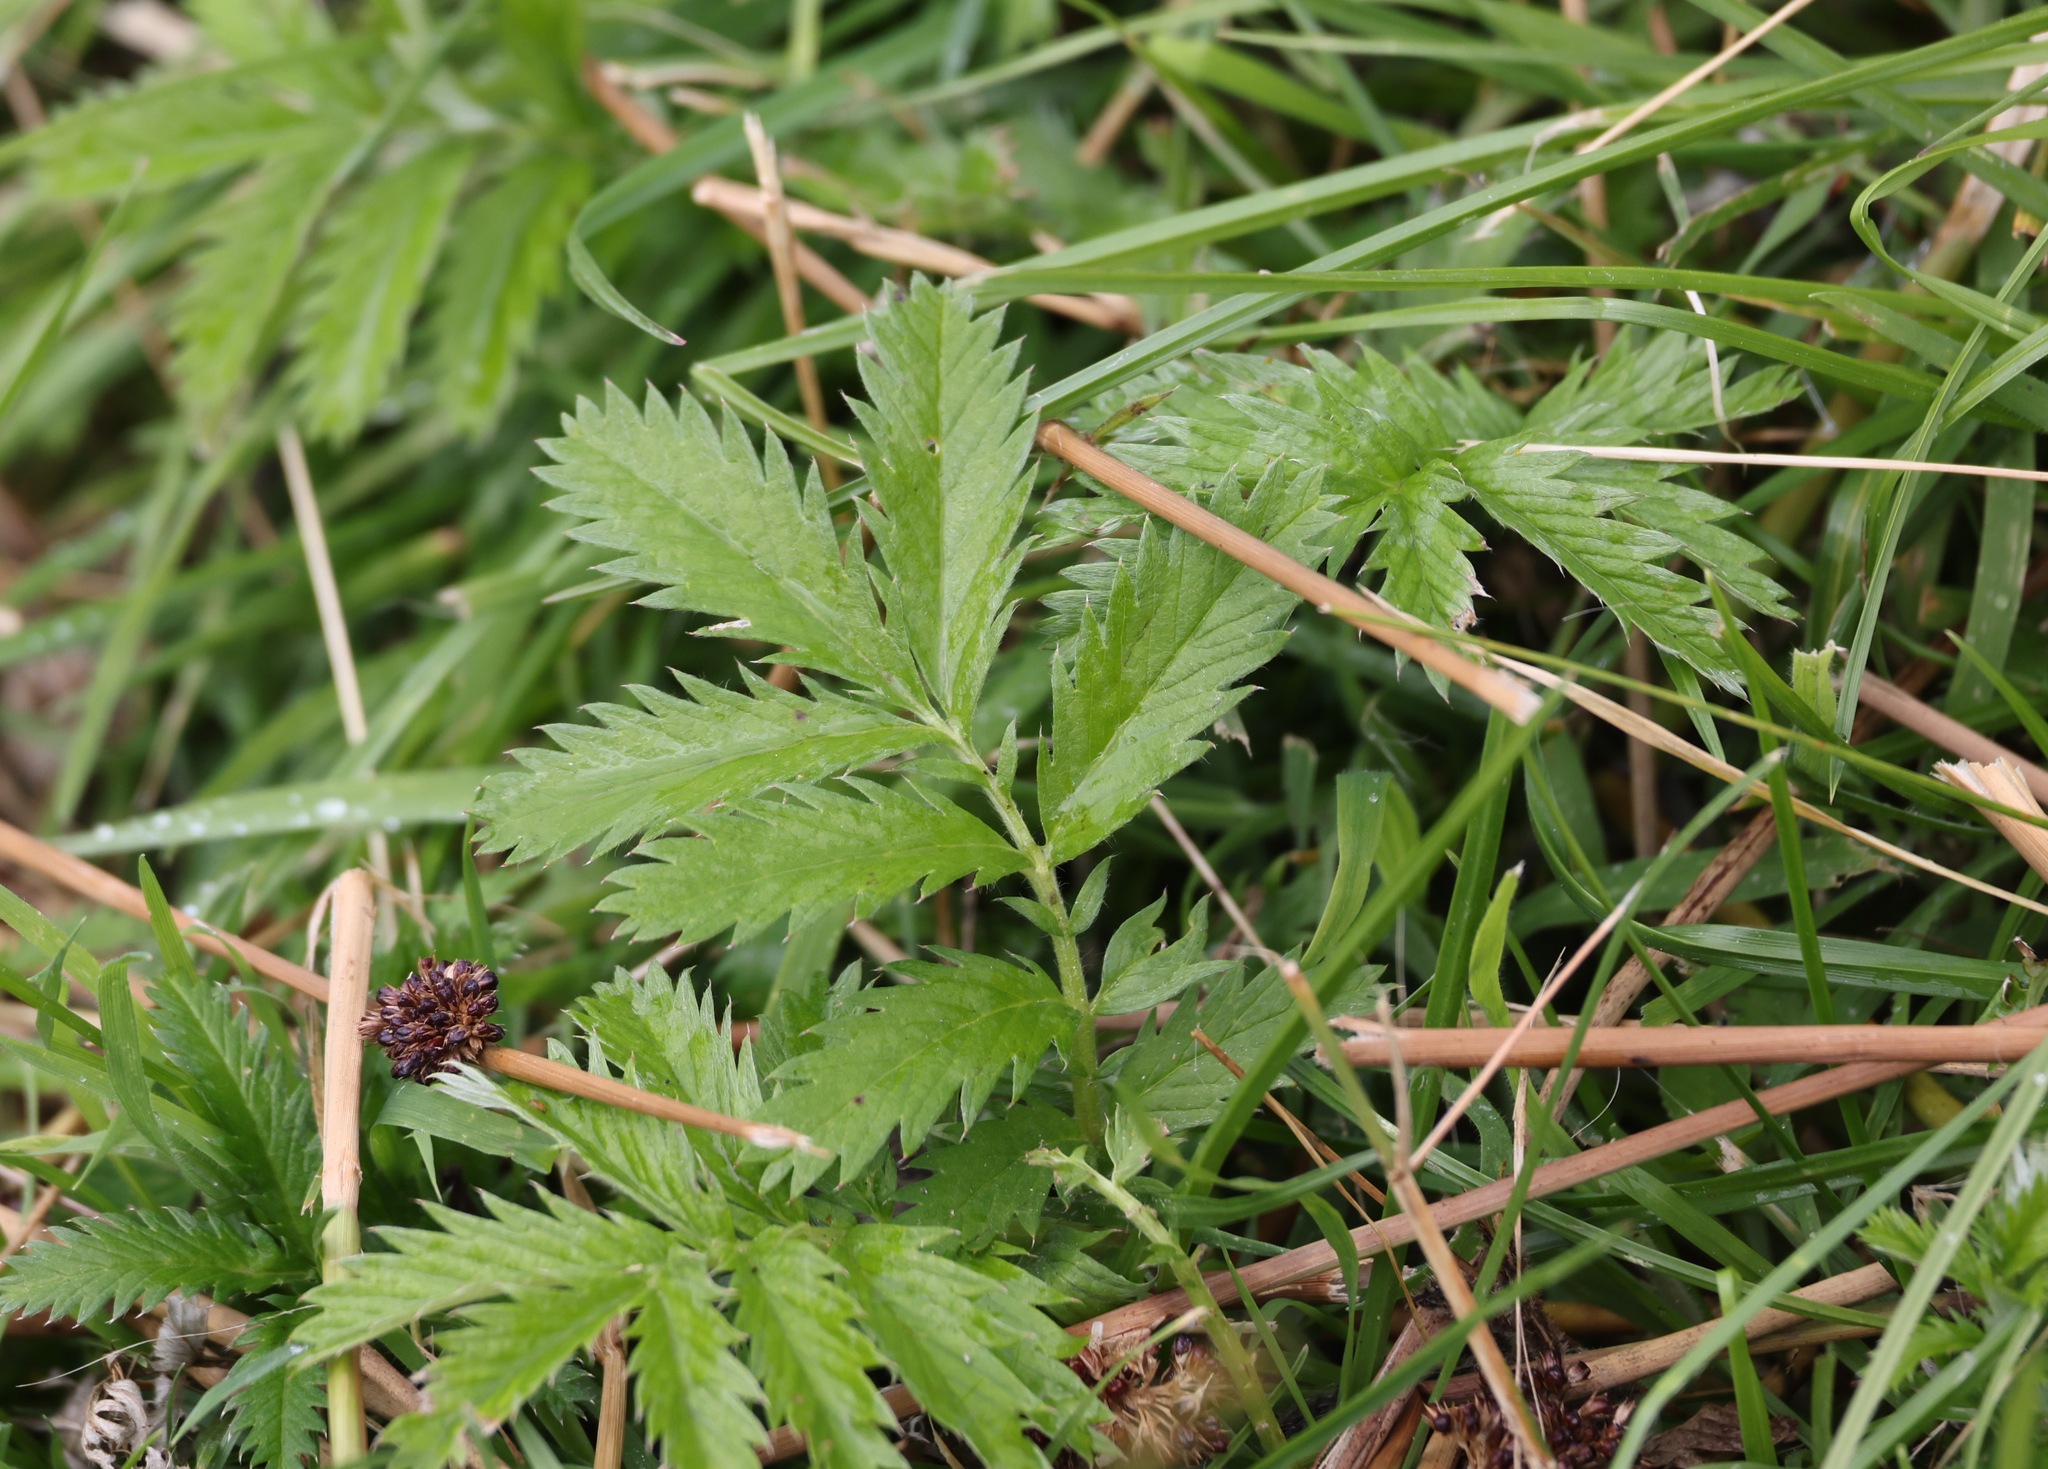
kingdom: Plantae
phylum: Tracheophyta
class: Magnoliopsida
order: Rosales
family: Rosaceae
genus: Argentina
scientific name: Argentina anserina
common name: Common silverweed
